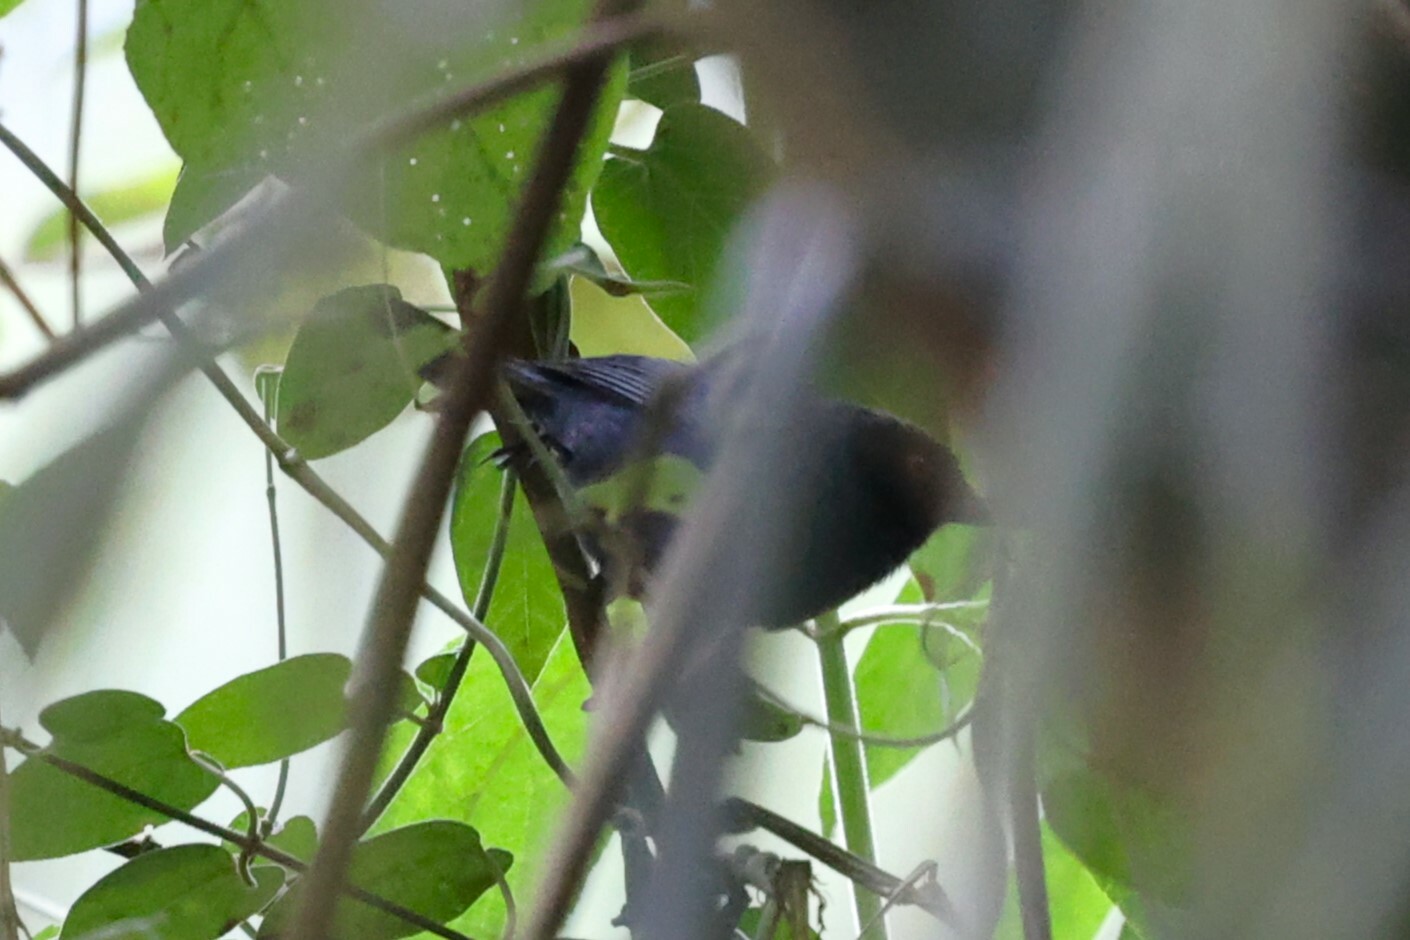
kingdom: Animalia
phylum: Chordata
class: Aves
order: Passeriformes
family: Thraupidae
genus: Diglossa
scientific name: Diglossa cyanea
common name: Masked flowerpiercer
